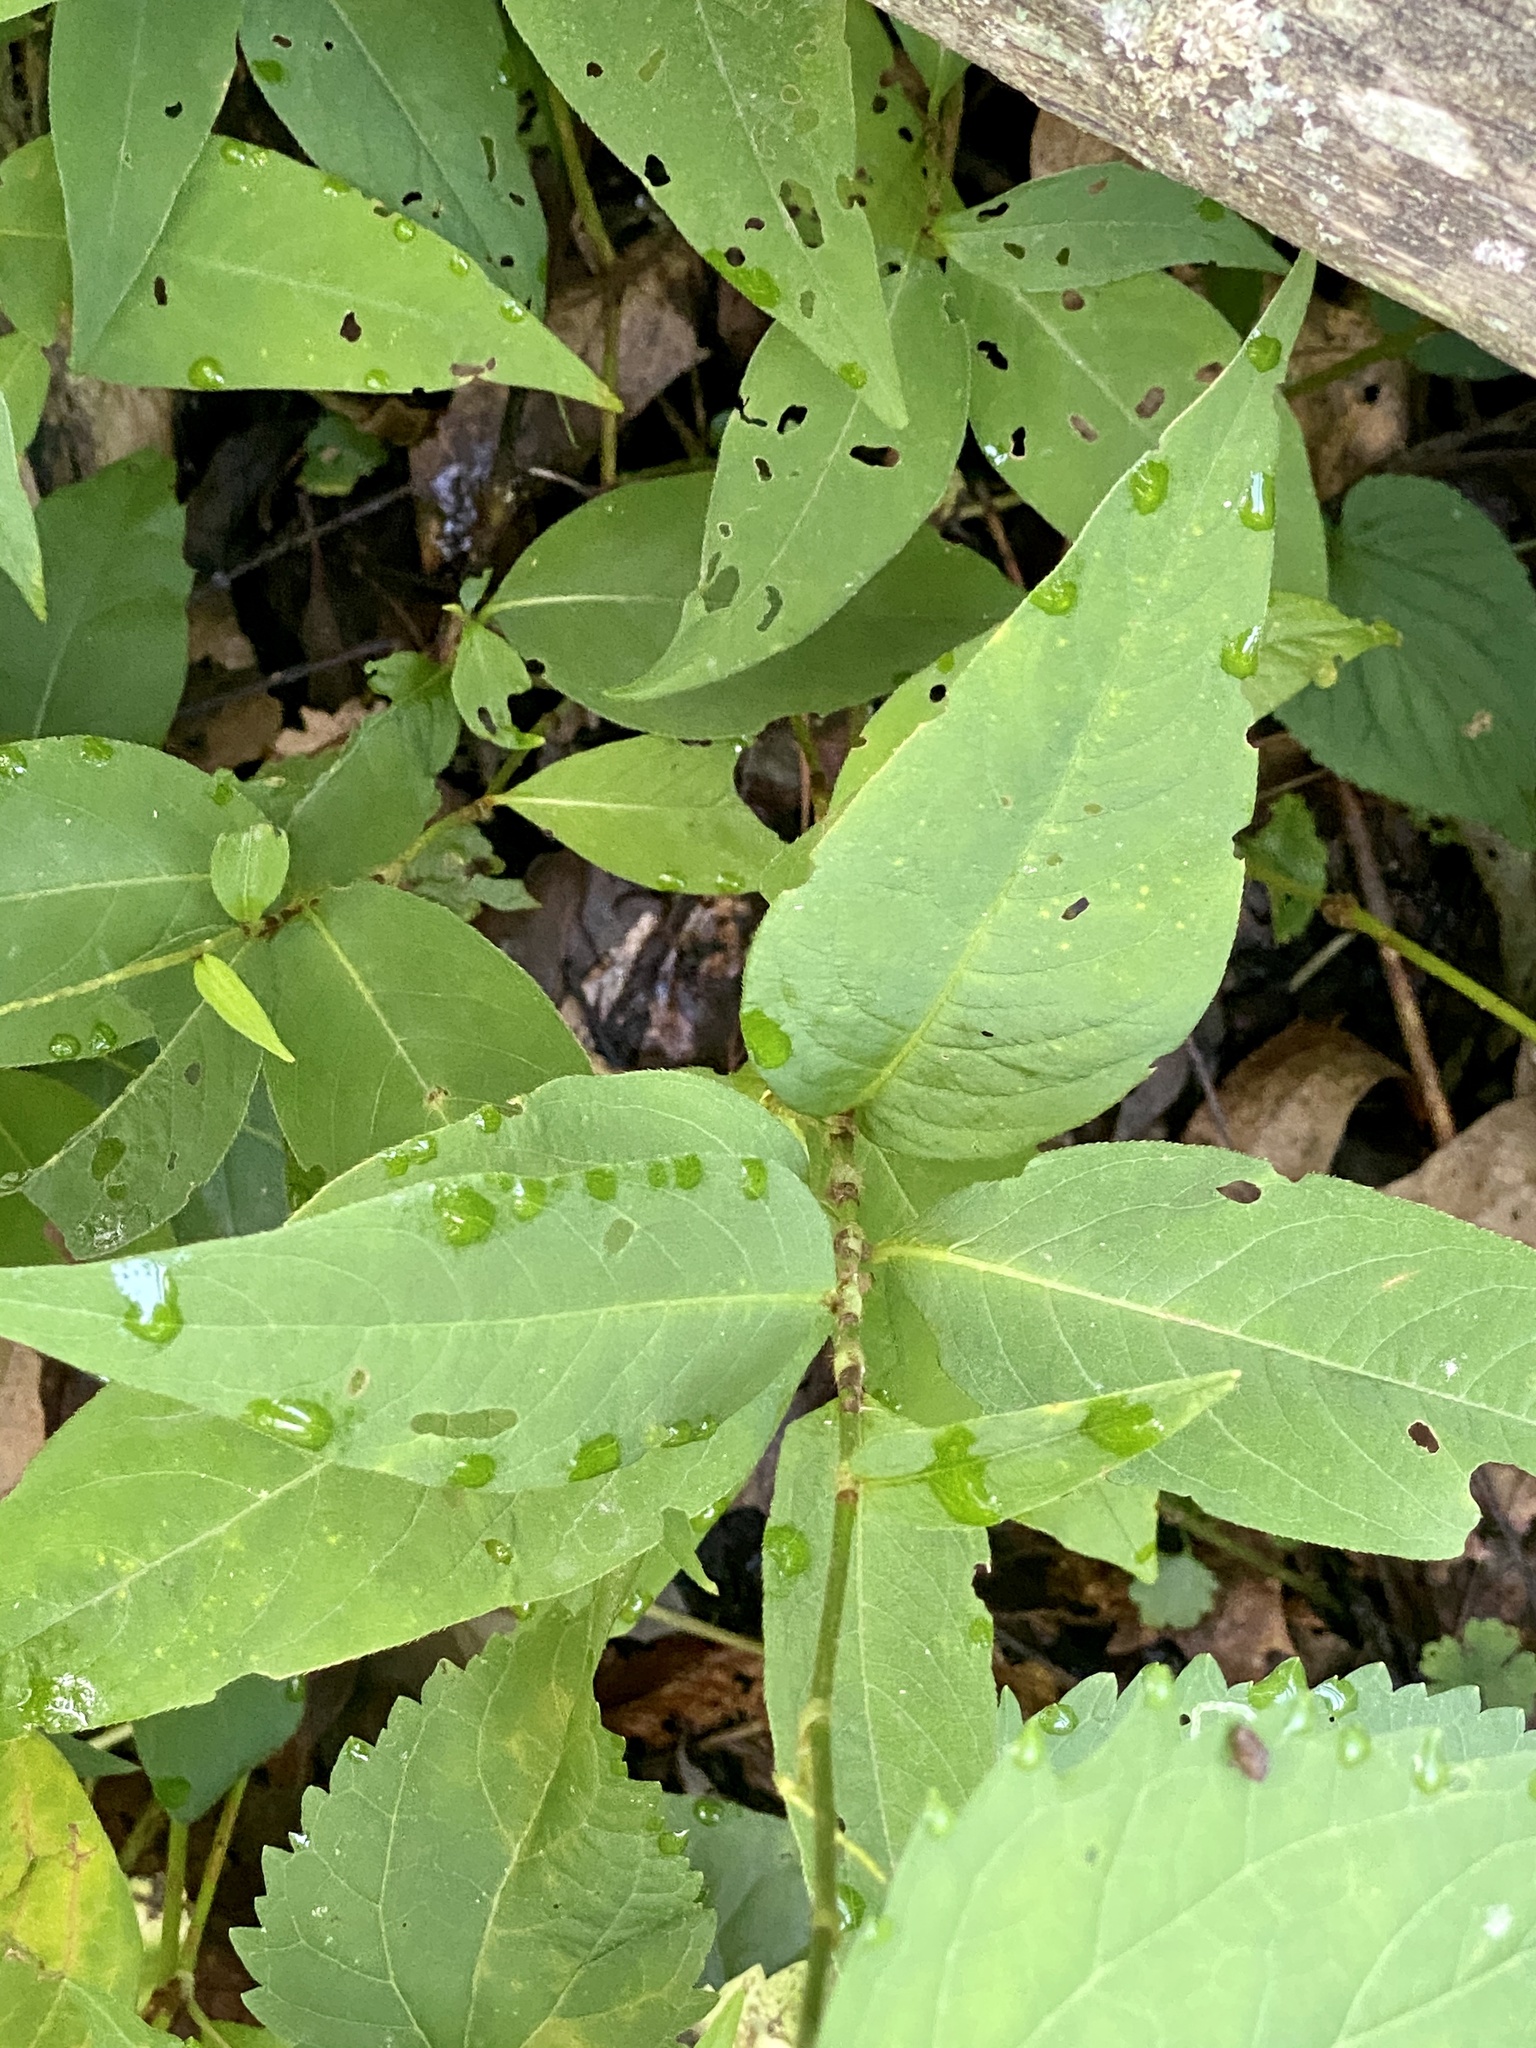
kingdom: Plantae
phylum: Tracheophyta
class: Magnoliopsida
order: Caryophyllales
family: Polygonaceae
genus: Persicaria
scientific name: Persicaria virginiana
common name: Jumpseed
